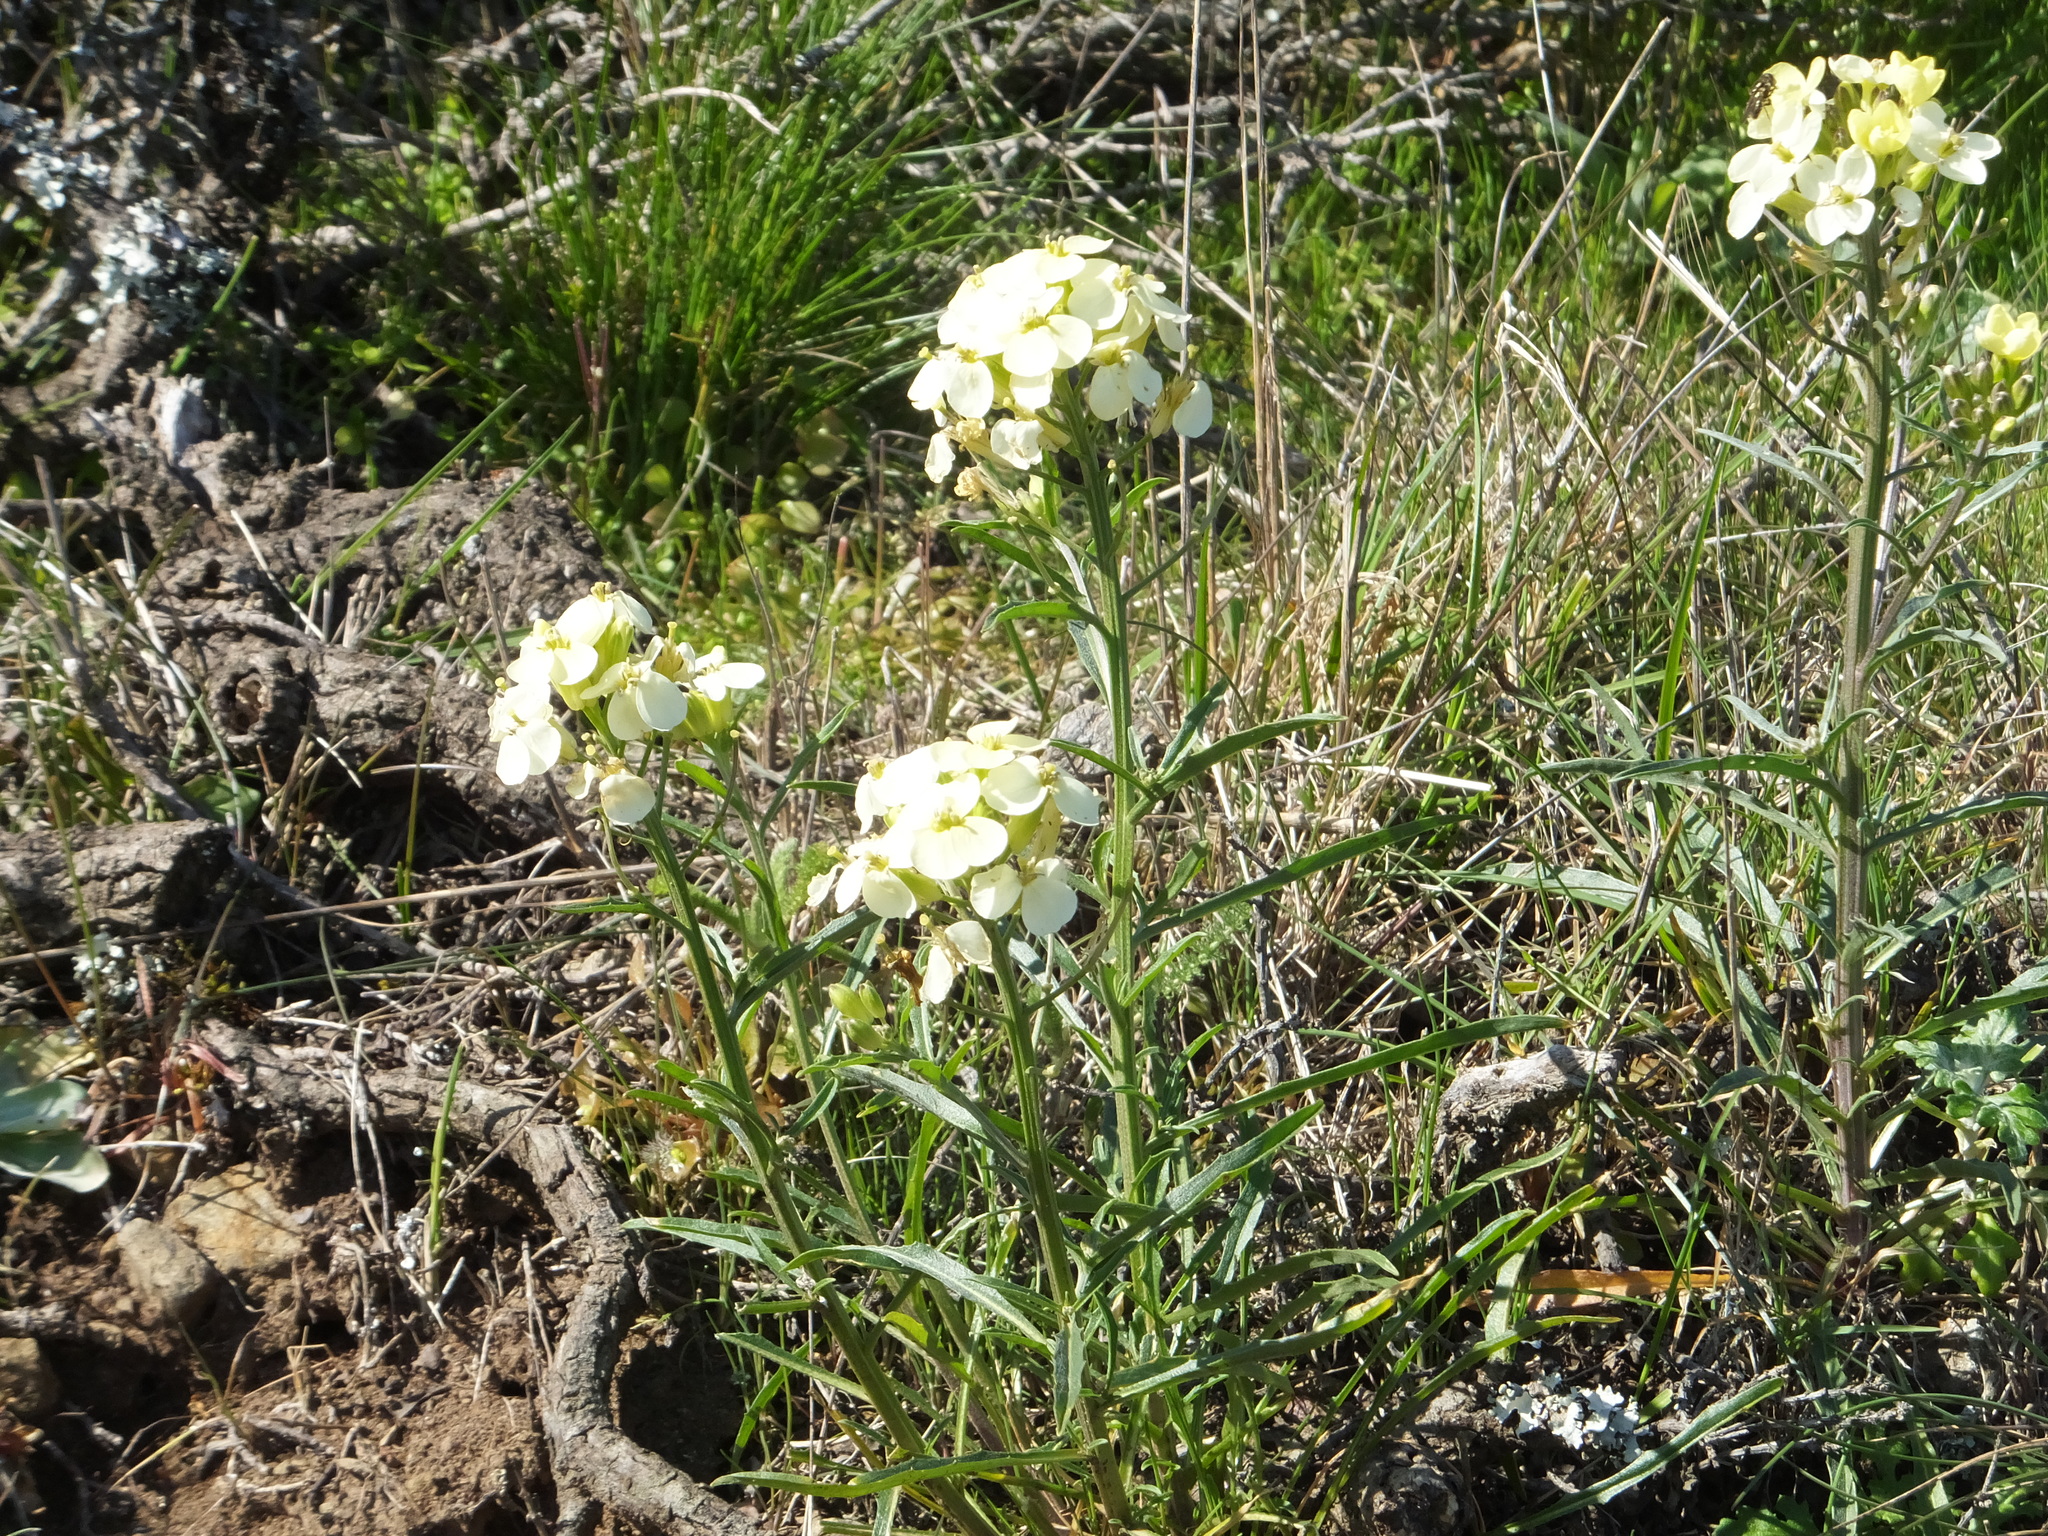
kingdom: Plantae
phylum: Tracheophyta
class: Magnoliopsida
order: Brassicales
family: Brassicaceae
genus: Erysimum
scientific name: Erysimum franciscanum
